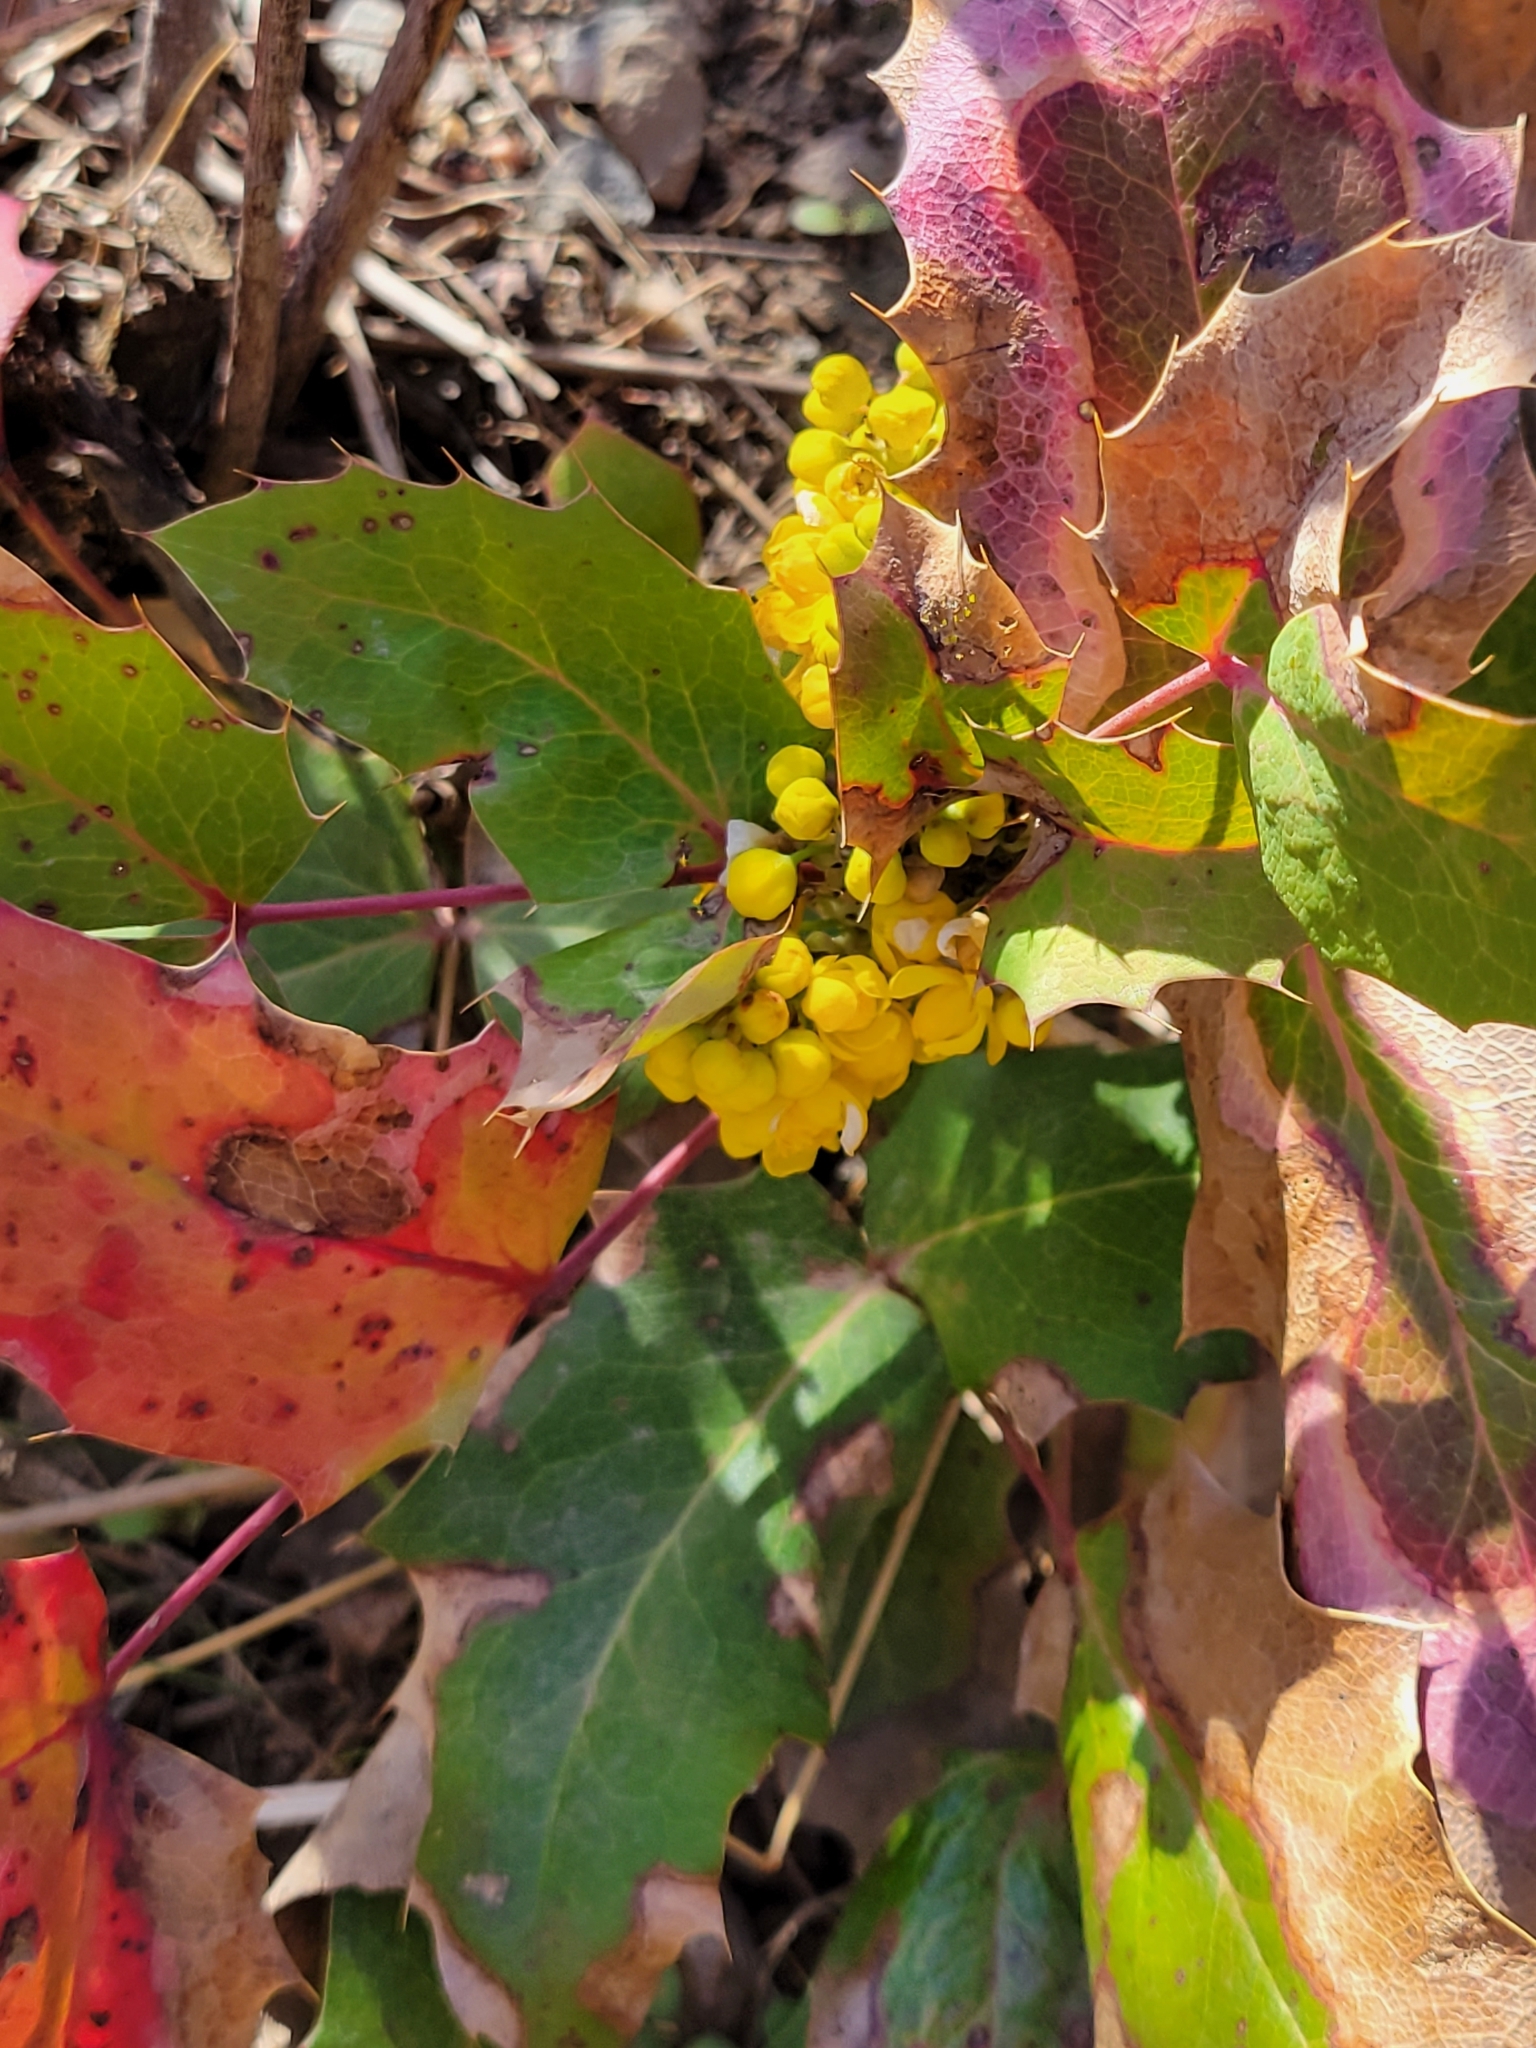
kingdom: Plantae
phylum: Tracheophyta
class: Magnoliopsida
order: Ranunculales
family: Berberidaceae
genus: Mahonia
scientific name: Mahonia repens
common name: Creeping oregon-grape
